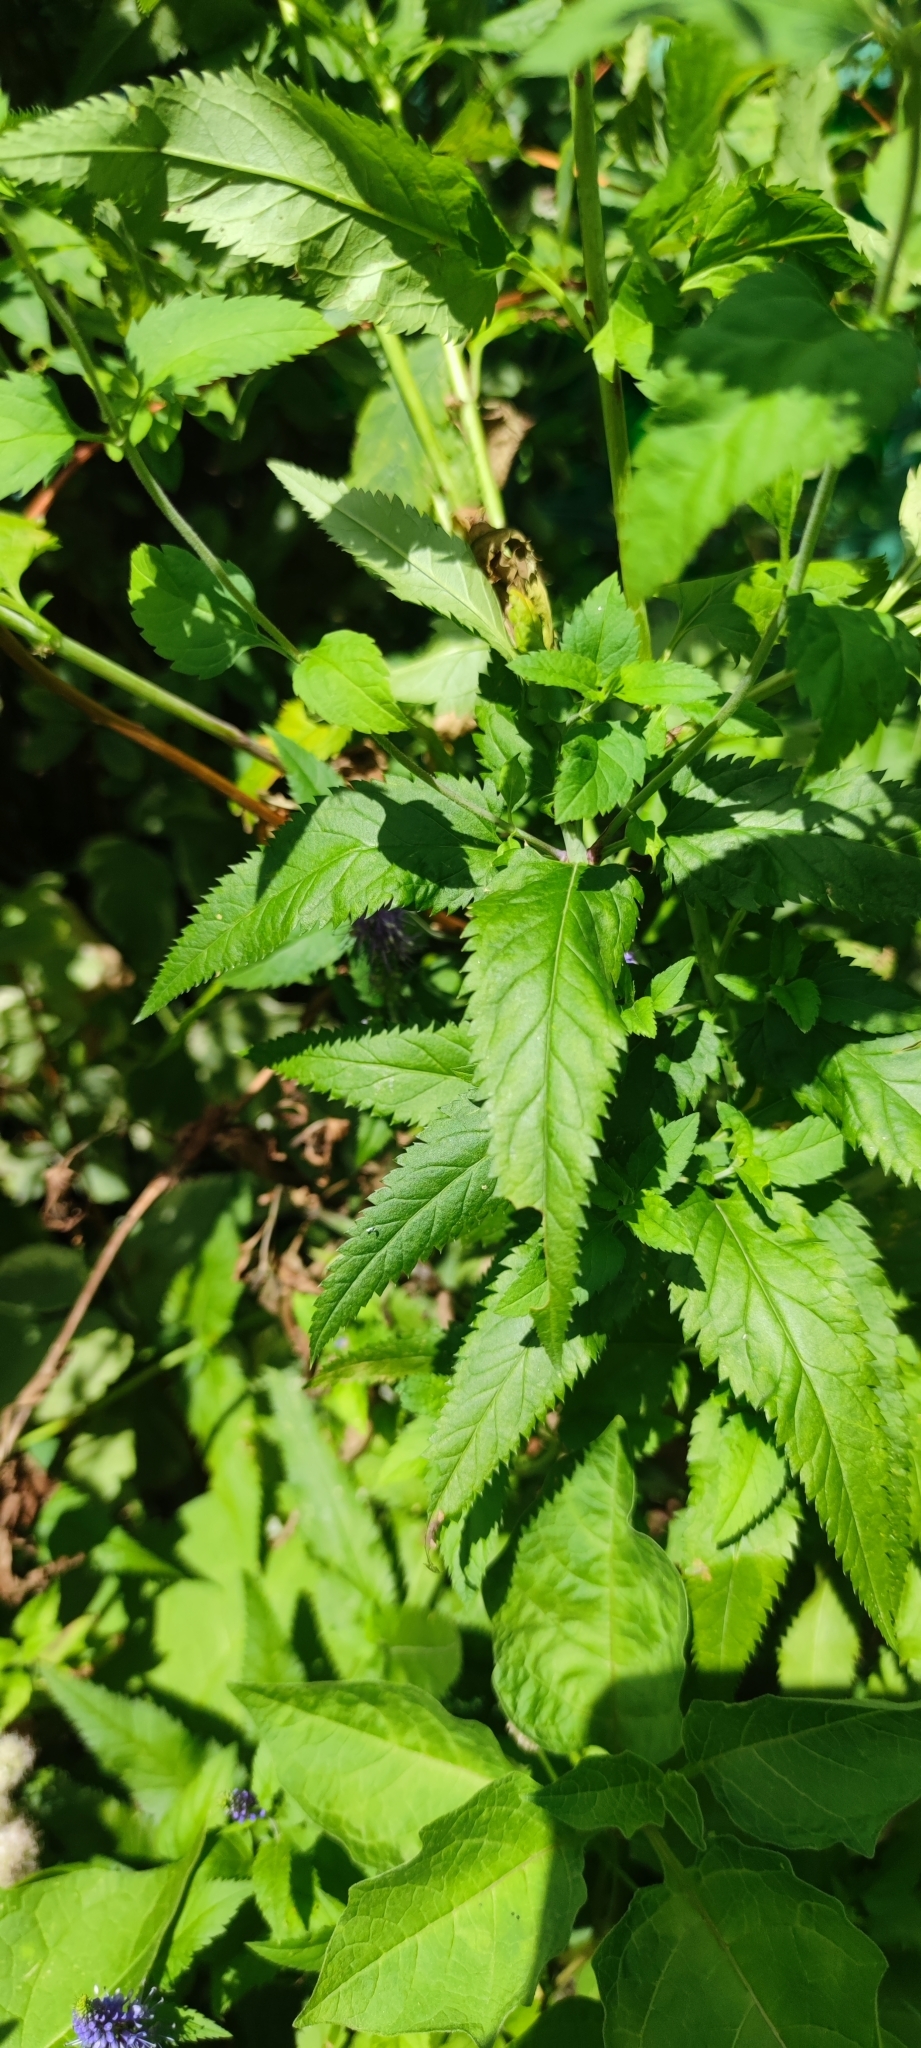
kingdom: Plantae
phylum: Tracheophyta
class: Magnoliopsida
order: Lamiales
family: Plantaginaceae
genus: Veronica
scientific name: Veronica longifolia
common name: Garden speedwell
